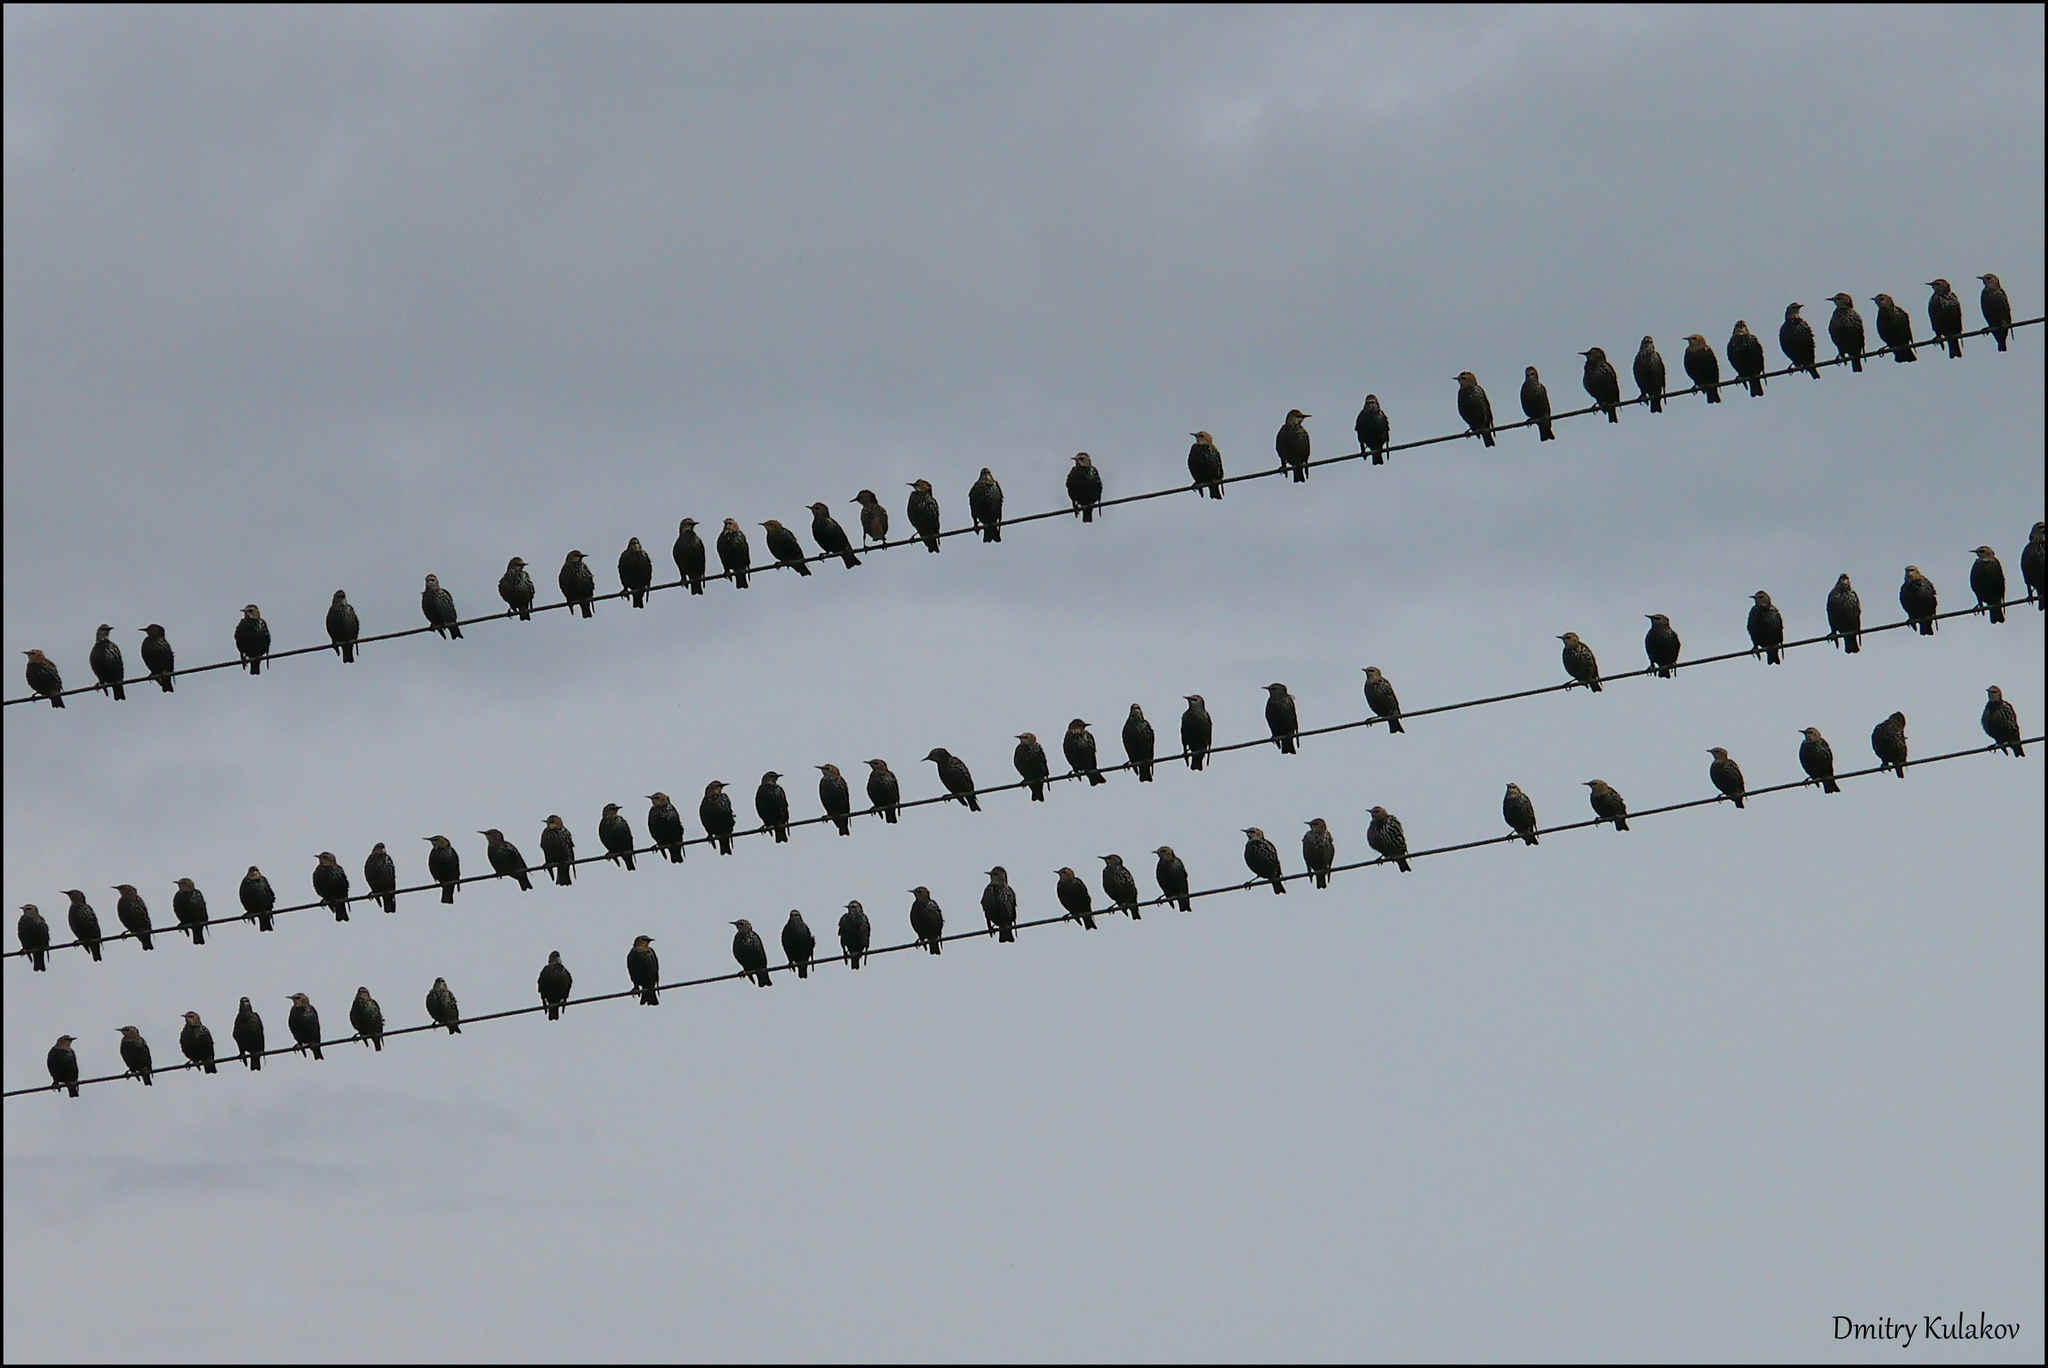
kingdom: Animalia
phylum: Chordata
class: Aves
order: Passeriformes
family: Sturnidae
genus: Sturnus
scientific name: Sturnus vulgaris
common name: Common starling
